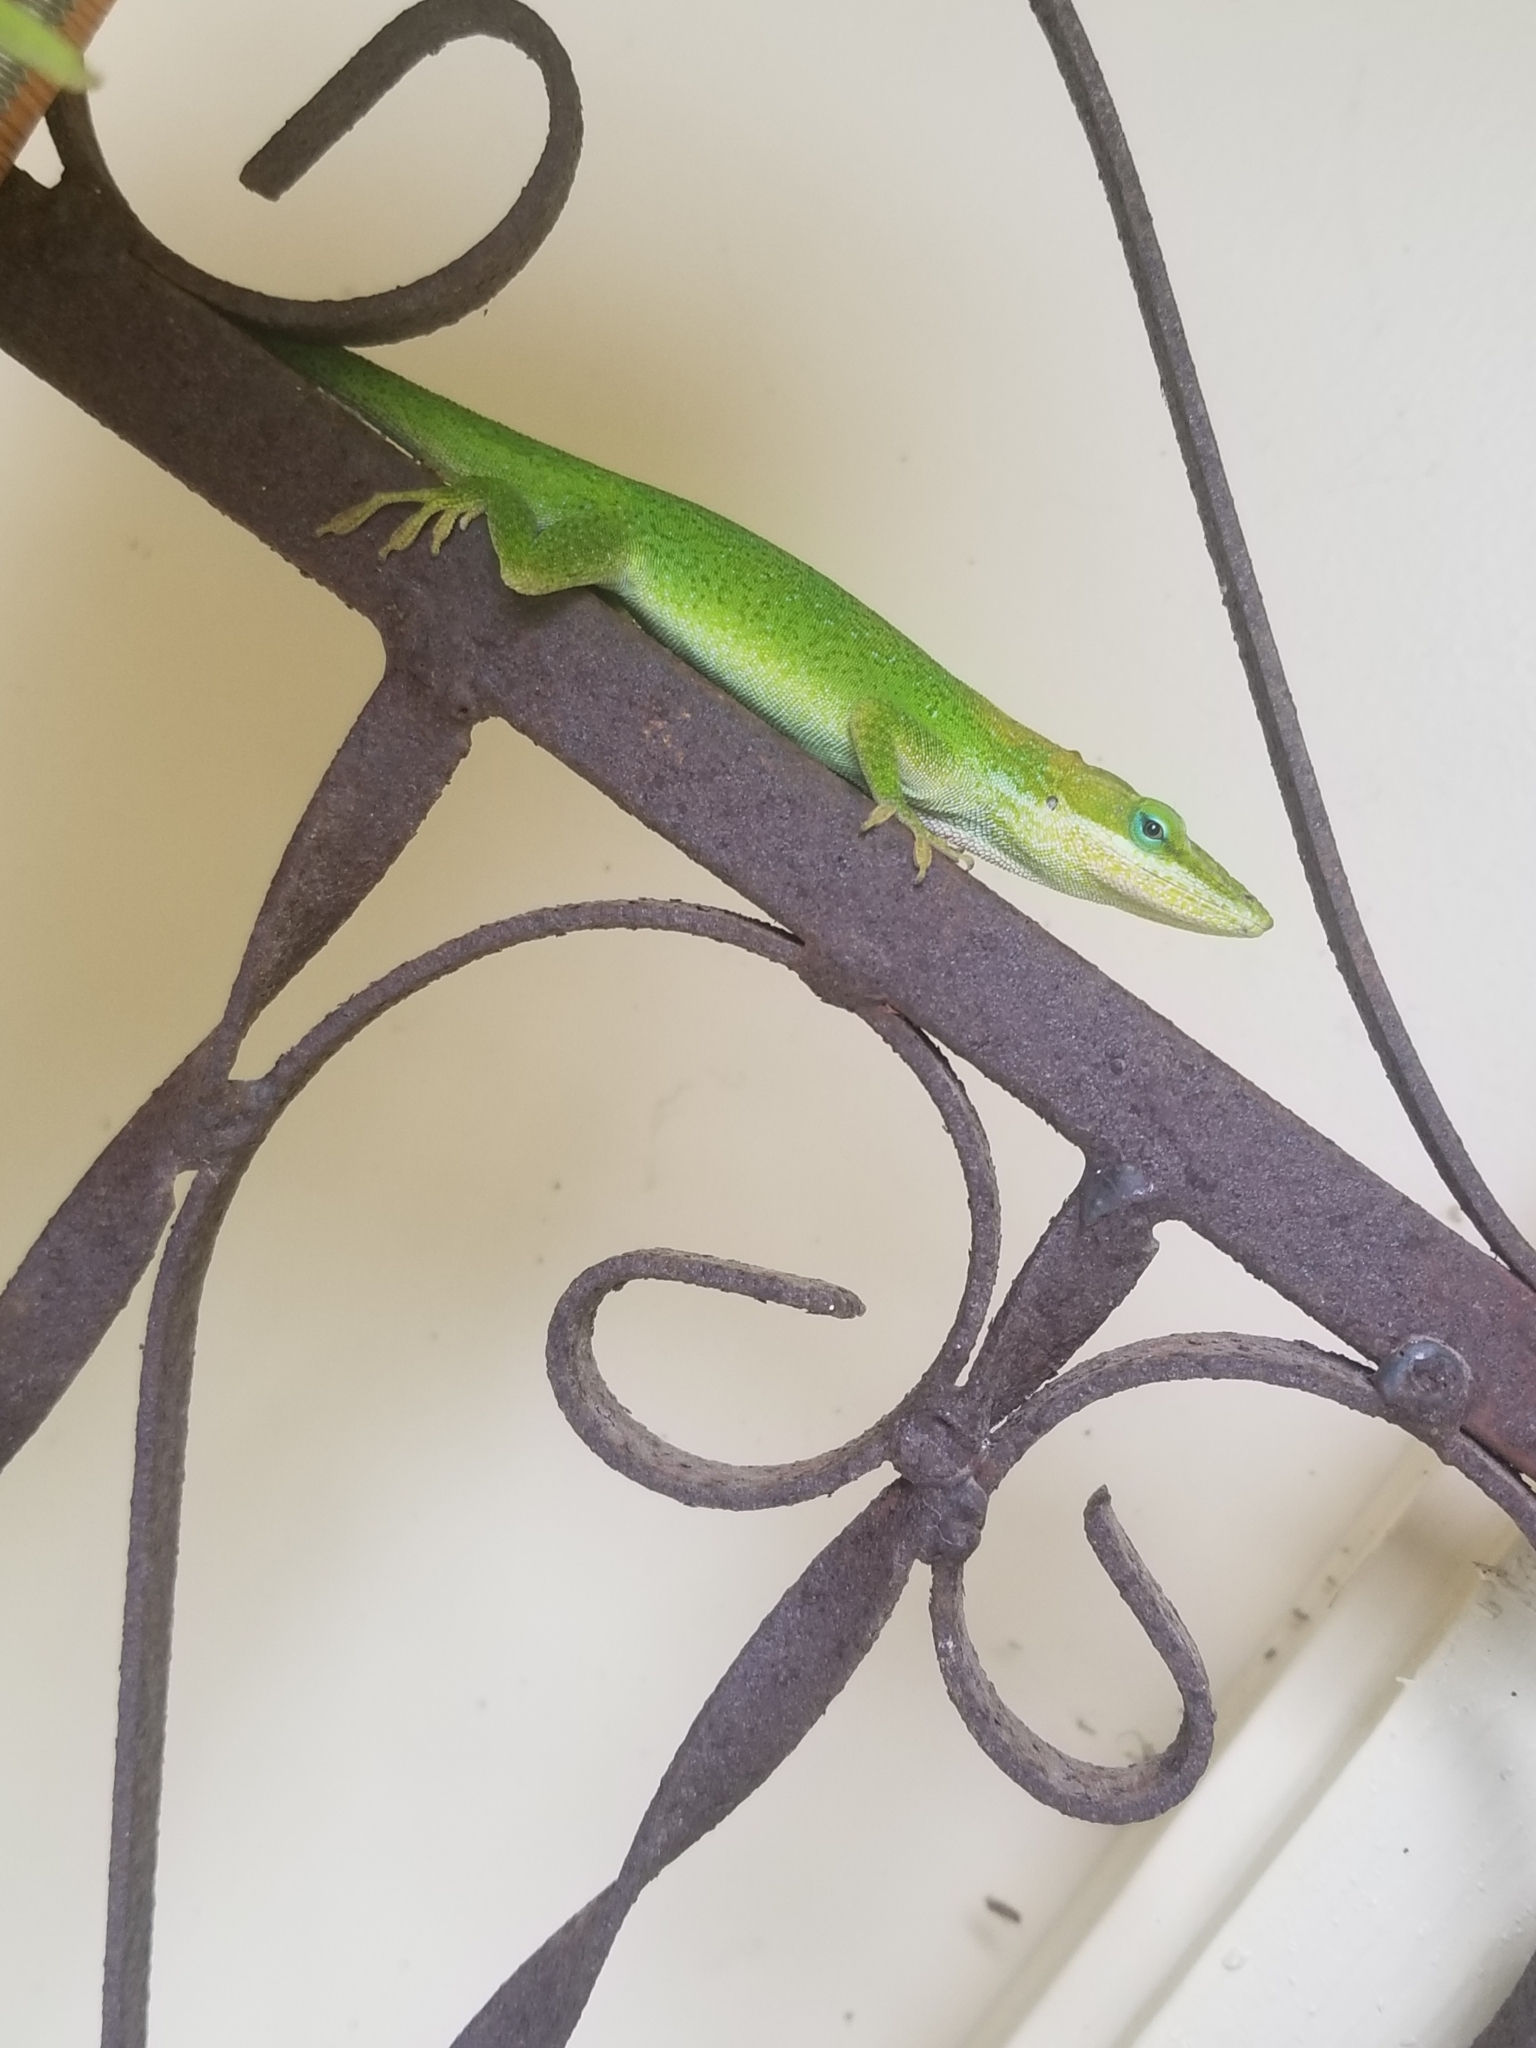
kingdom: Animalia
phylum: Chordata
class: Squamata
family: Dactyloidae
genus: Anolis
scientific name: Anolis carolinensis
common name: Green anole
